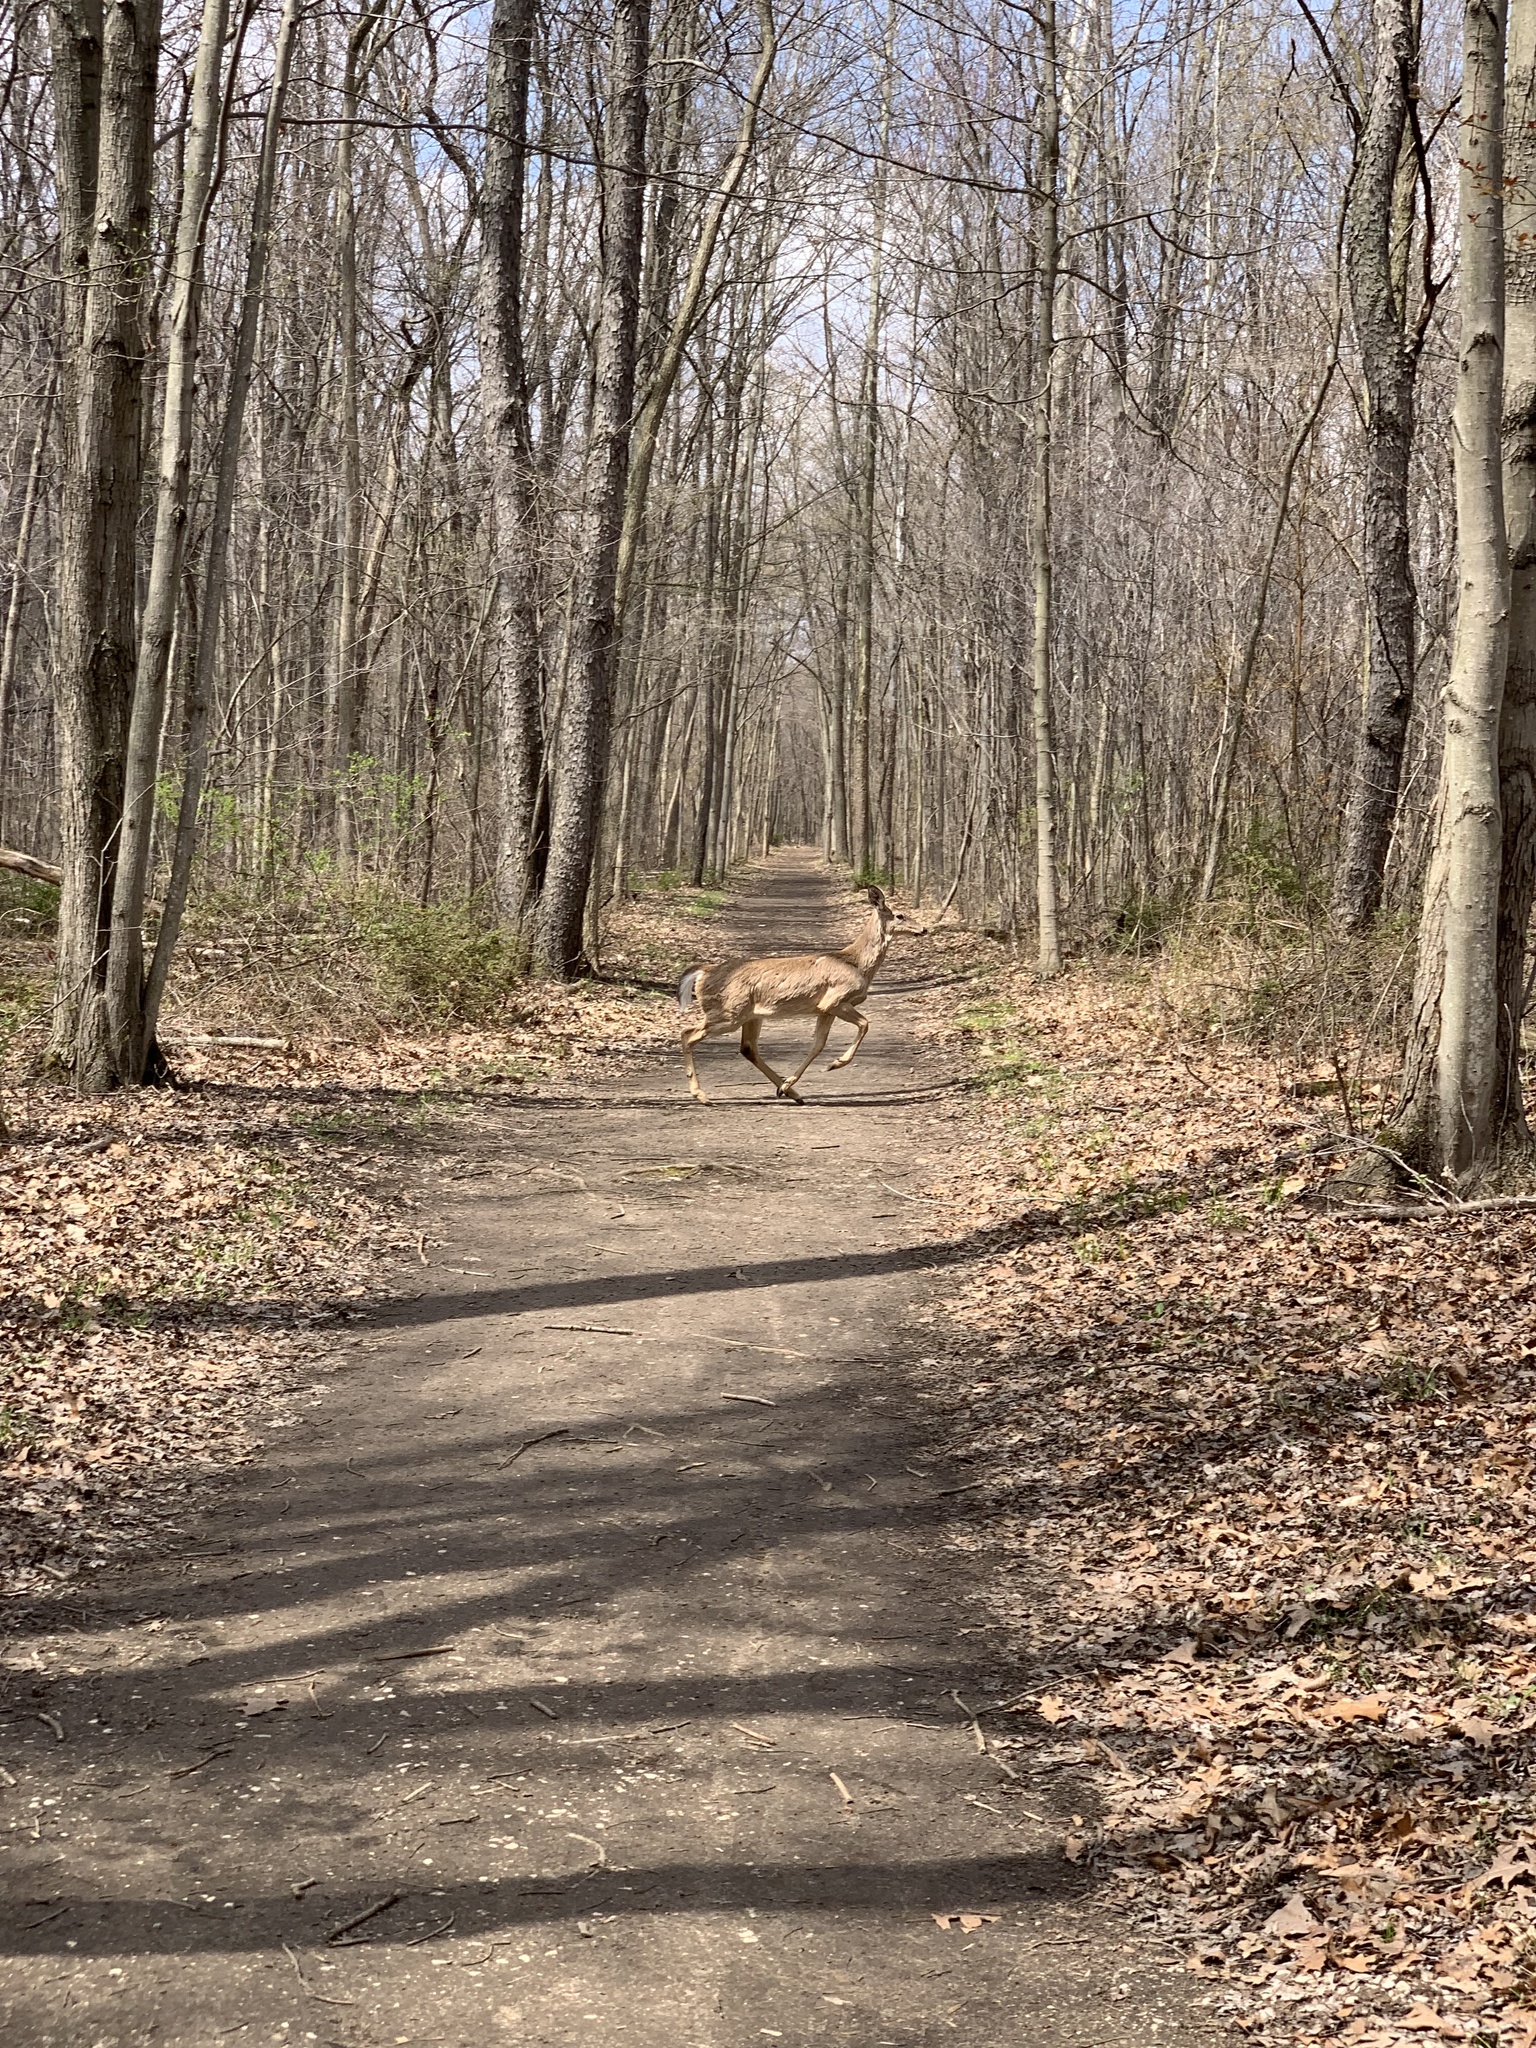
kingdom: Animalia
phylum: Chordata
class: Mammalia
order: Artiodactyla
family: Cervidae
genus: Odocoileus
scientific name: Odocoileus virginianus
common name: White-tailed deer
